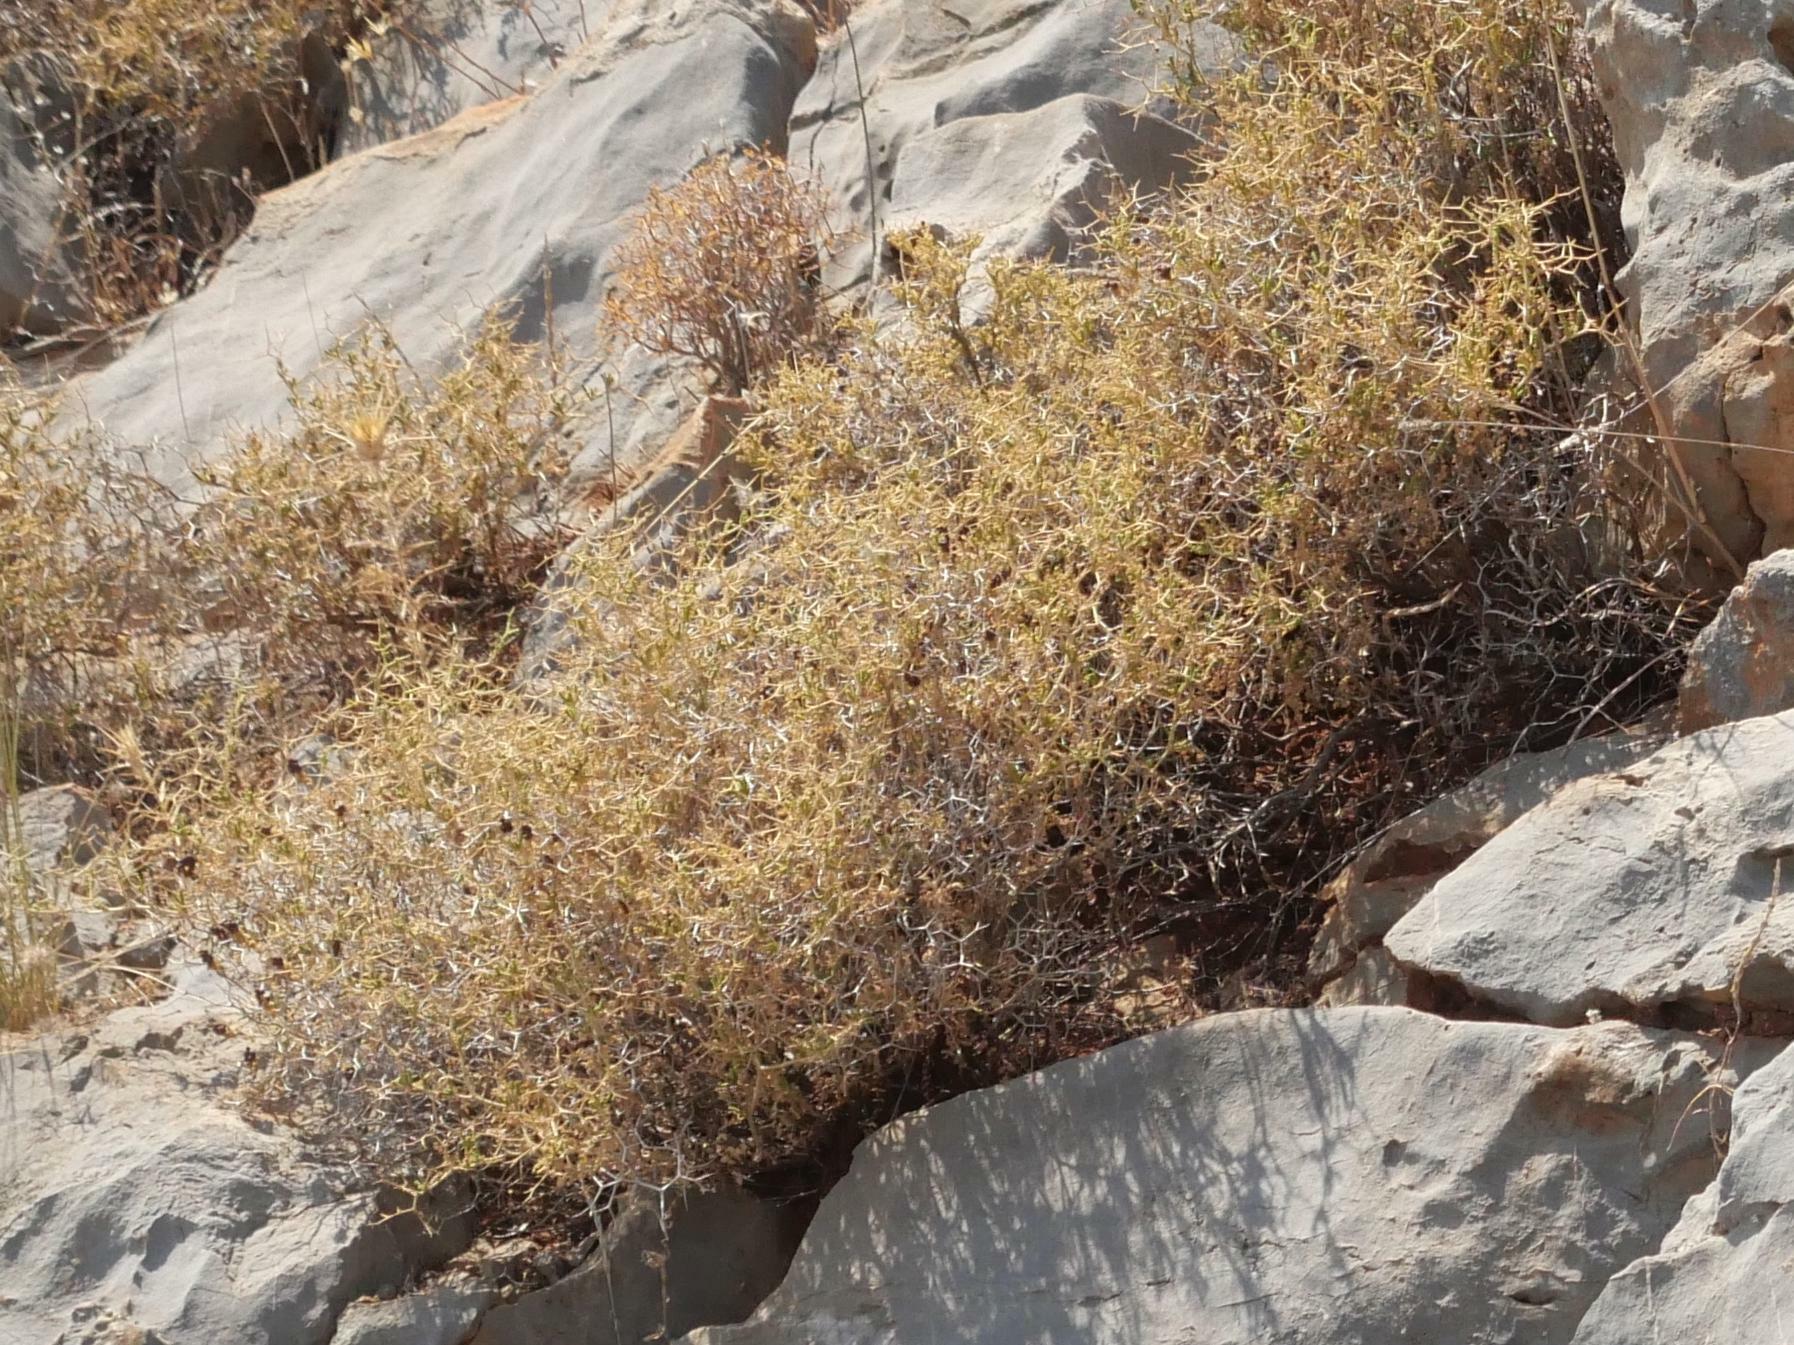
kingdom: Plantae
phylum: Tracheophyta
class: Magnoliopsida
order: Rosales
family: Rosaceae
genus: Sarcopoterium
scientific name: Sarcopoterium spinosum
